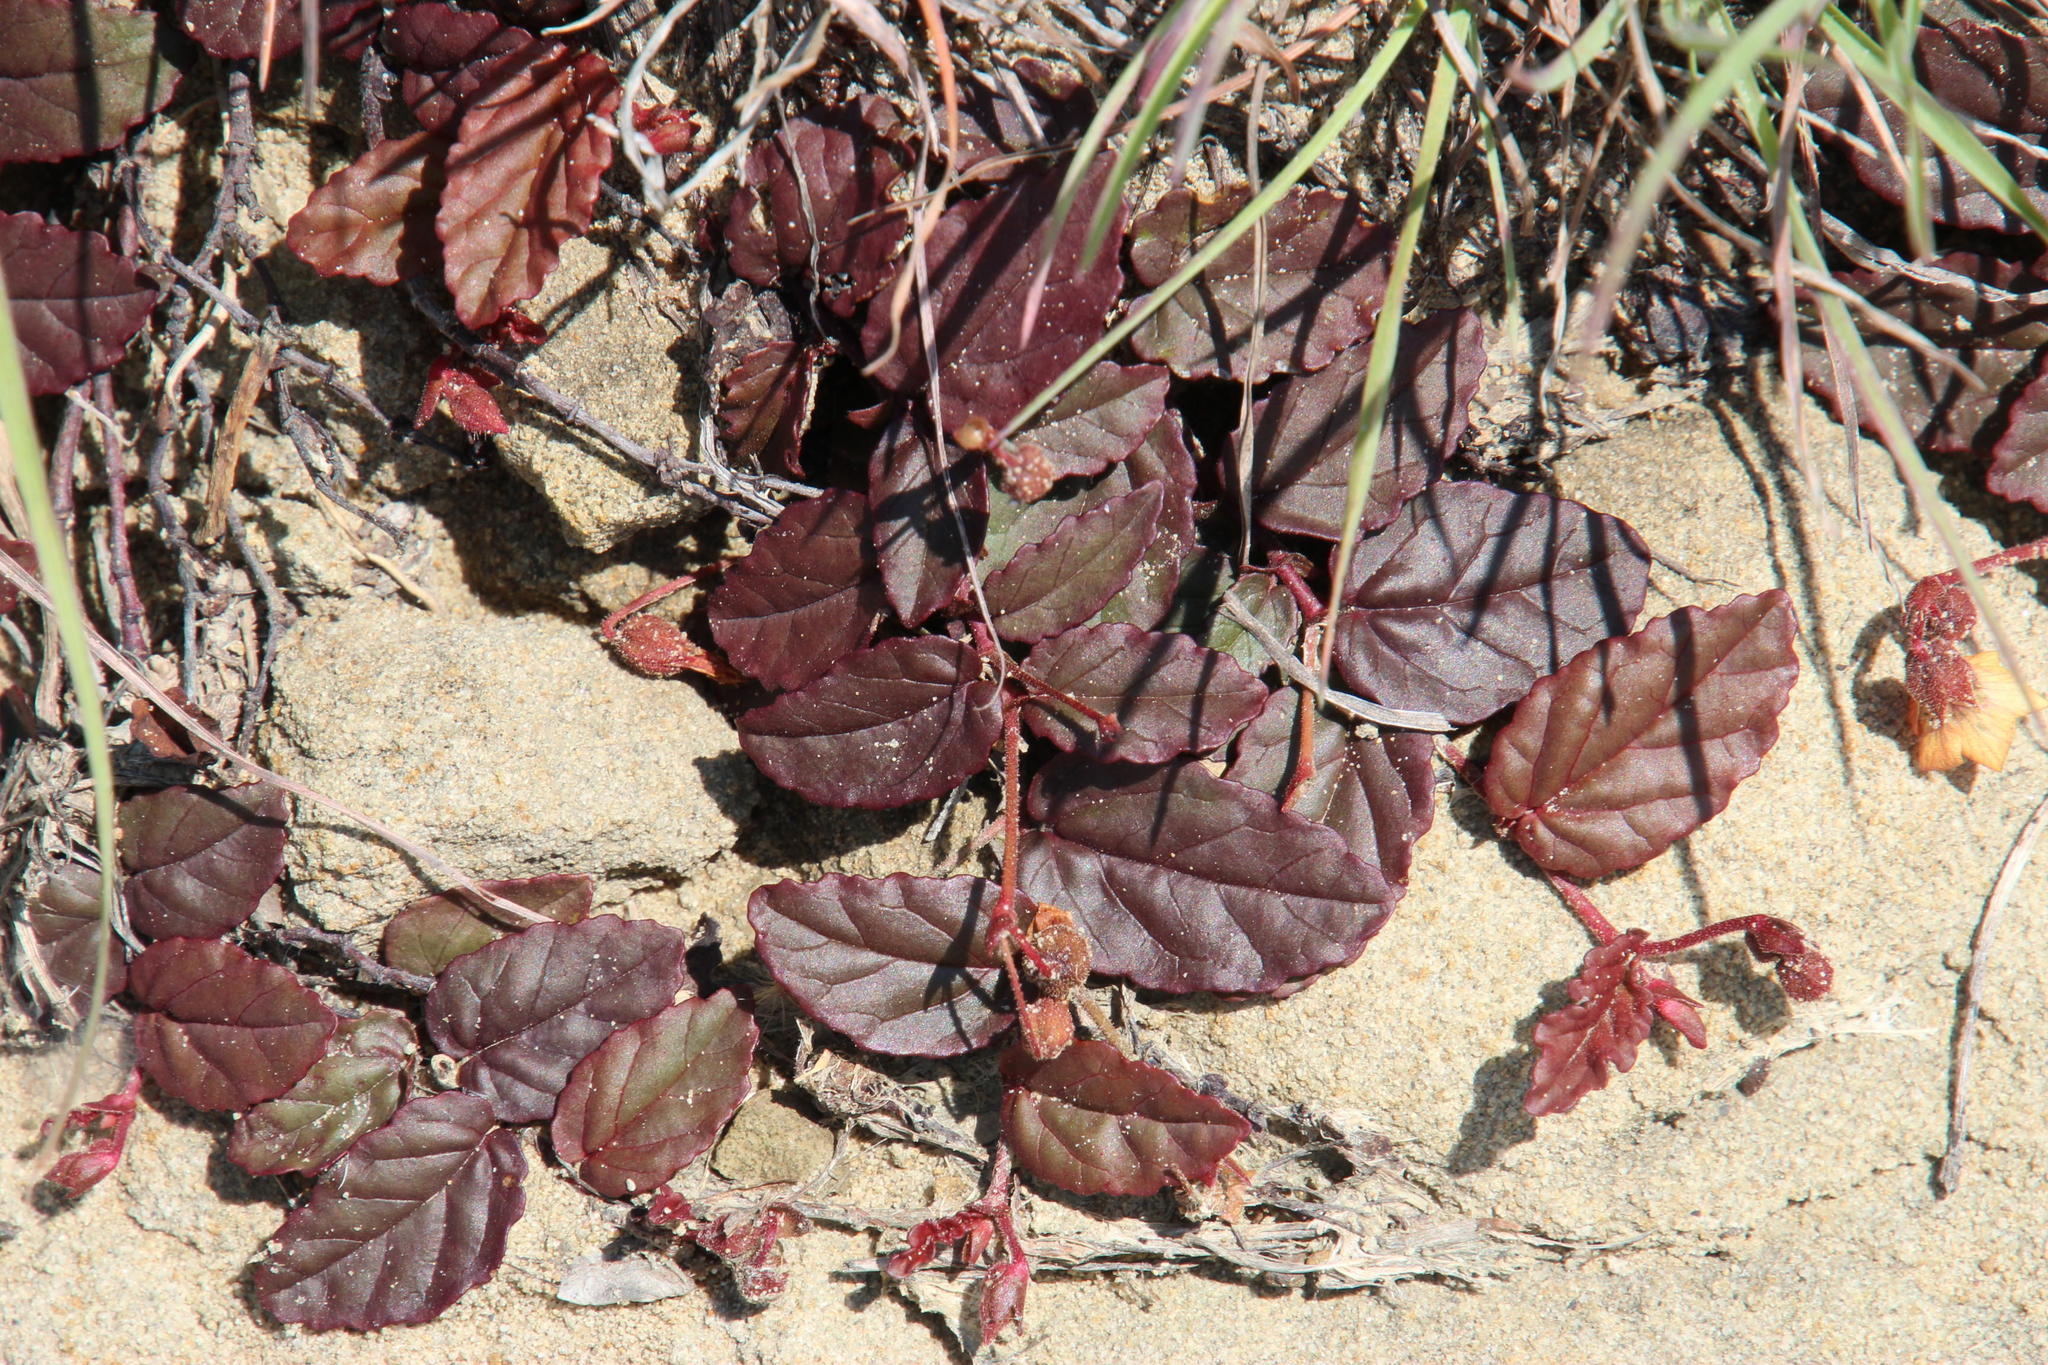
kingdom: Plantae
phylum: Tracheophyta
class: Magnoliopsida
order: Malvales
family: Malvaceae
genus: Hermannia
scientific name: Hermannia depressa
